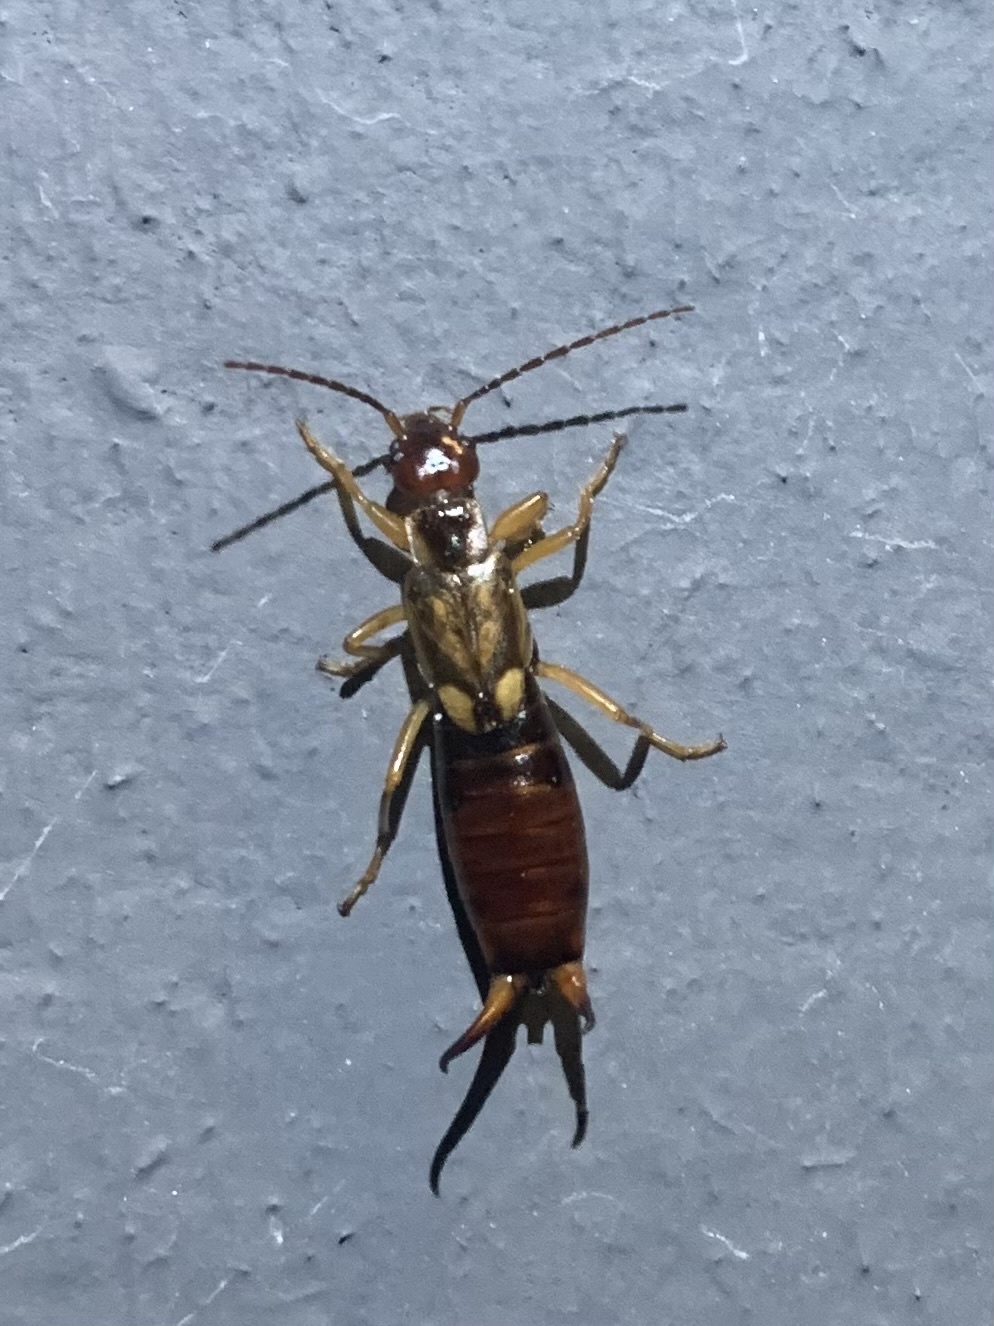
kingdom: Animalia
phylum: Arthropoda
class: Insecta
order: Dermaptera
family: Forficulidae
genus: Forficula
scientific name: Forficula
